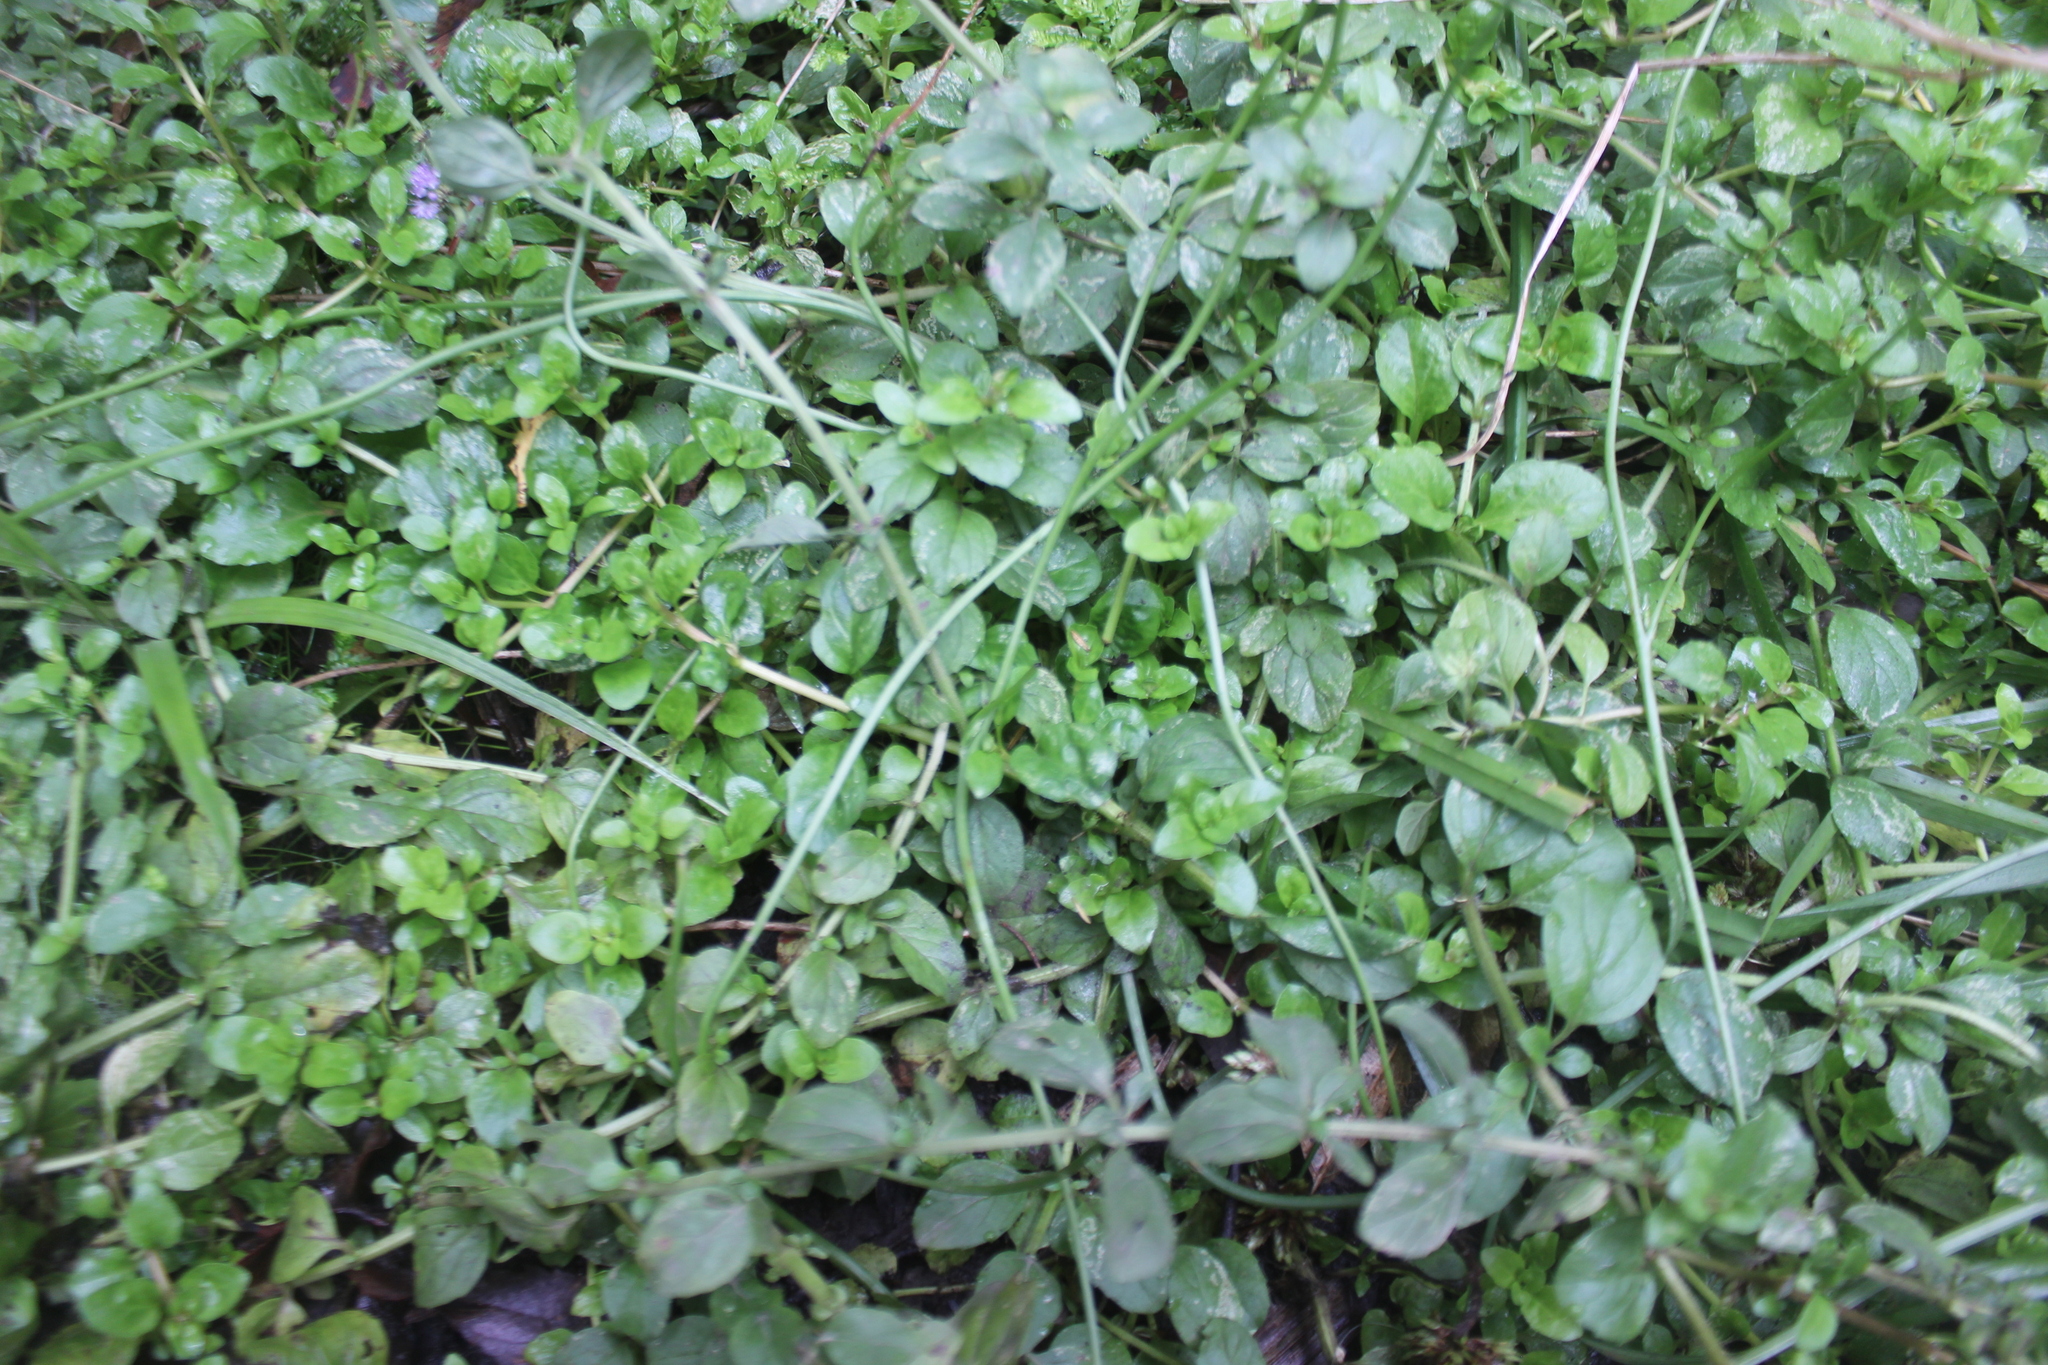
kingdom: Plantae
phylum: Tracheophyta
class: Magnoliopsida
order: Lamiales
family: Lamiaceae
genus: Mentha
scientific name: Mentha pulegium
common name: Pennyroyal
